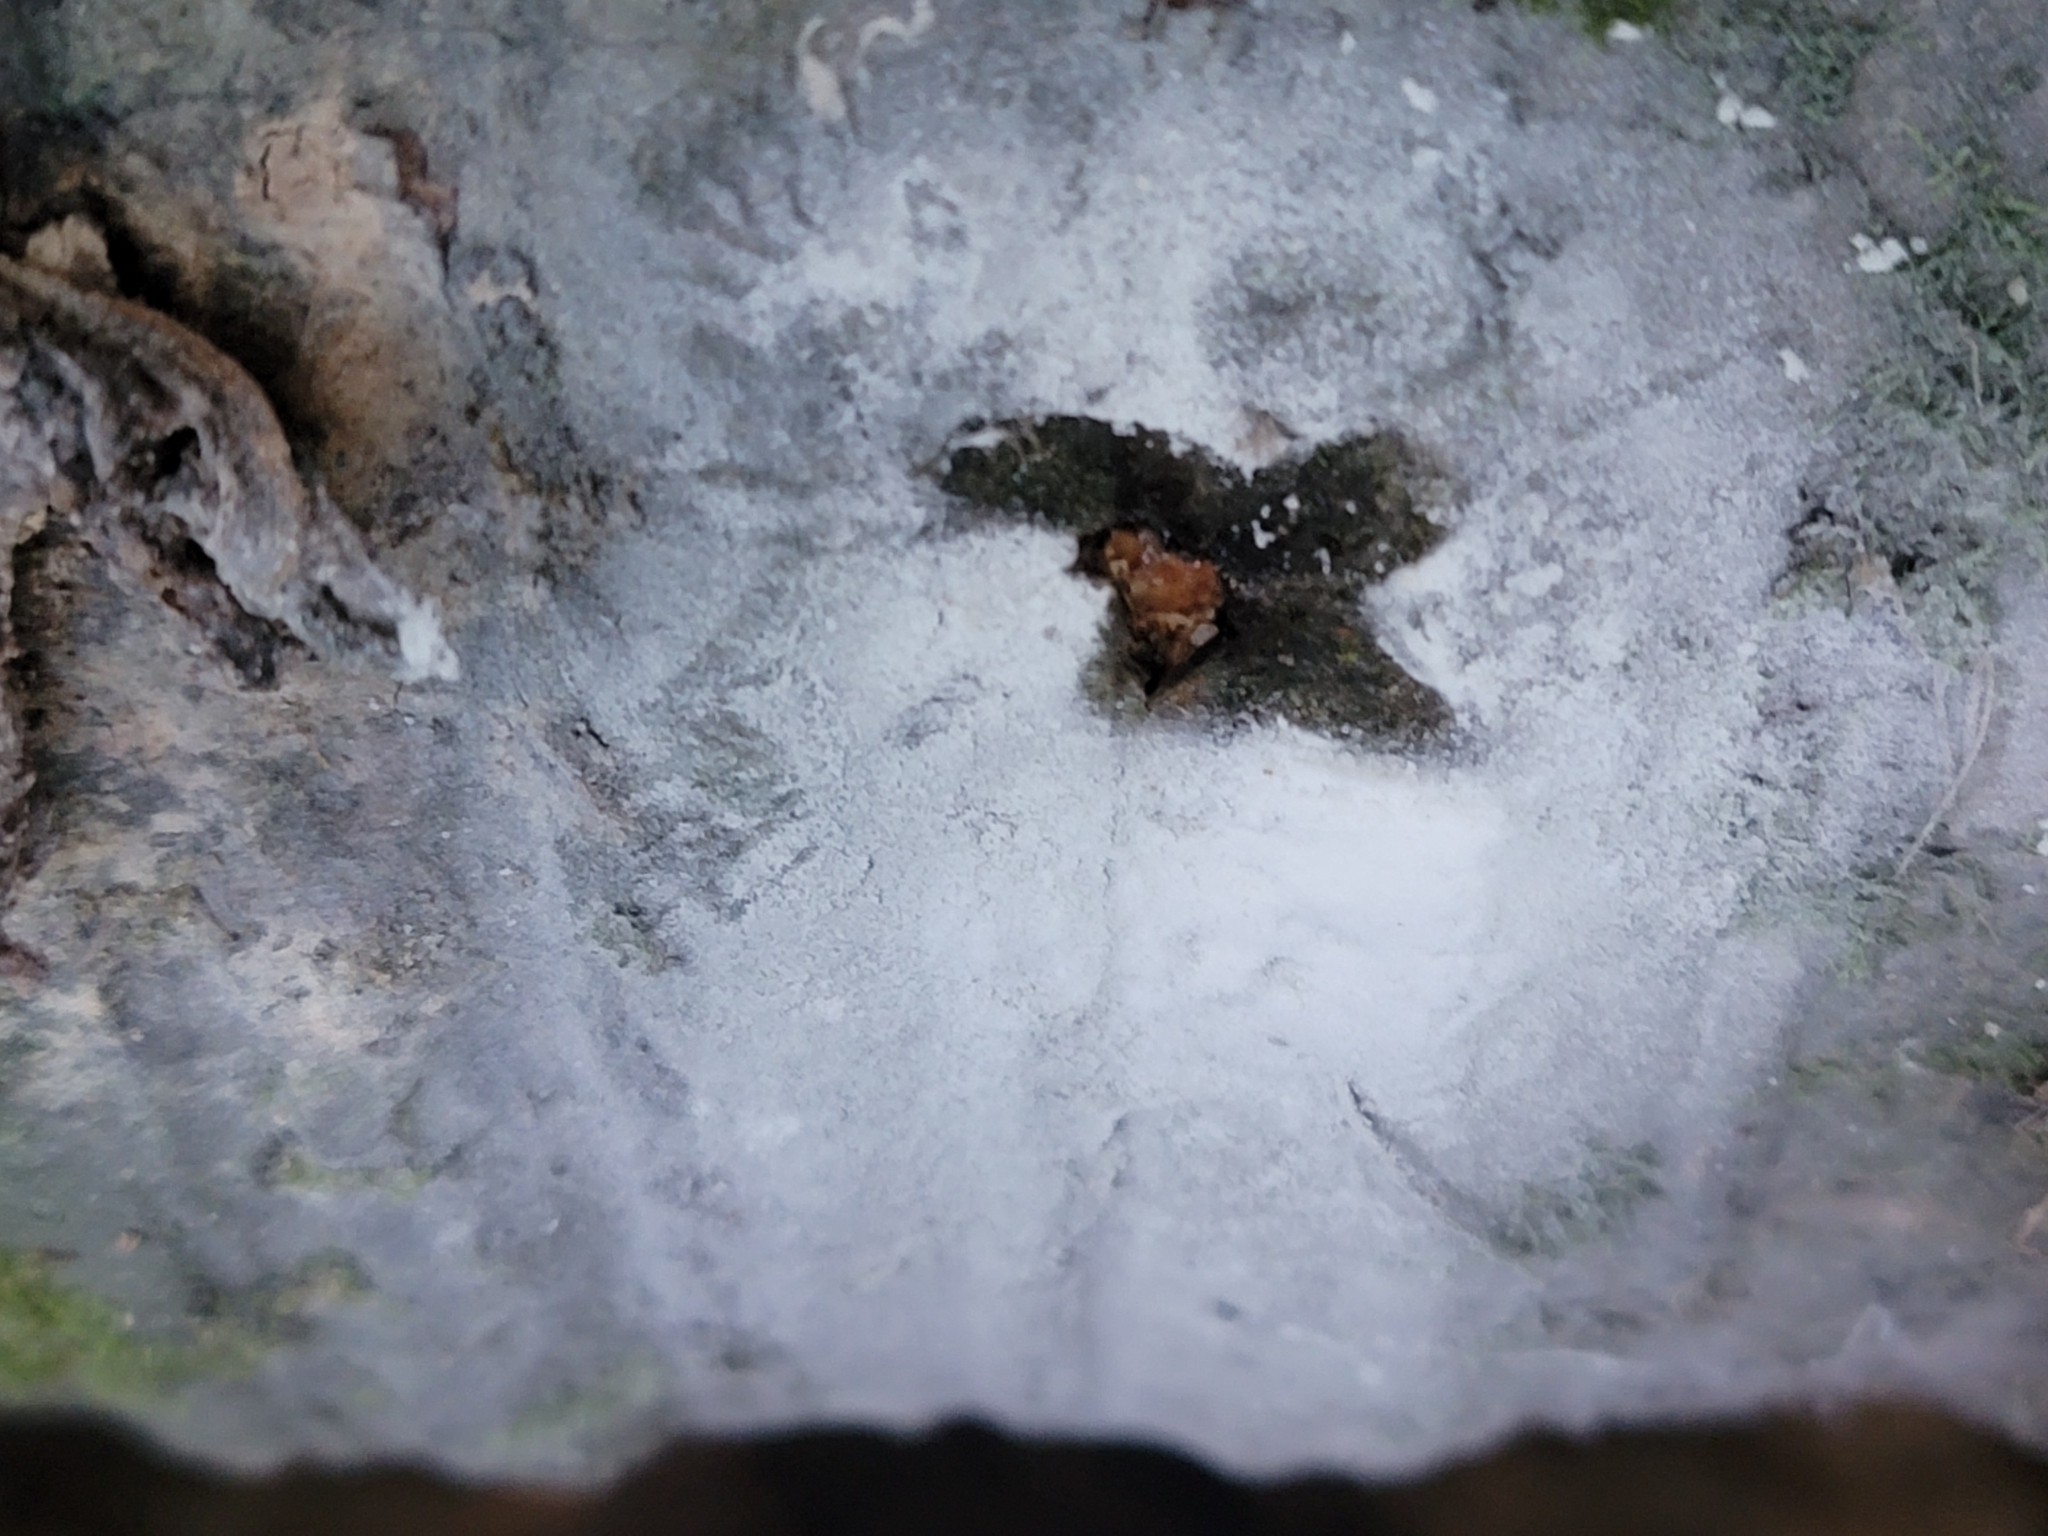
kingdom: Fungi
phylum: Basidiomycota
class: Agaricomycetes
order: Agaricales
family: Physalacriaceae
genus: Oudemansiella
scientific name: Oudemansiella australis
